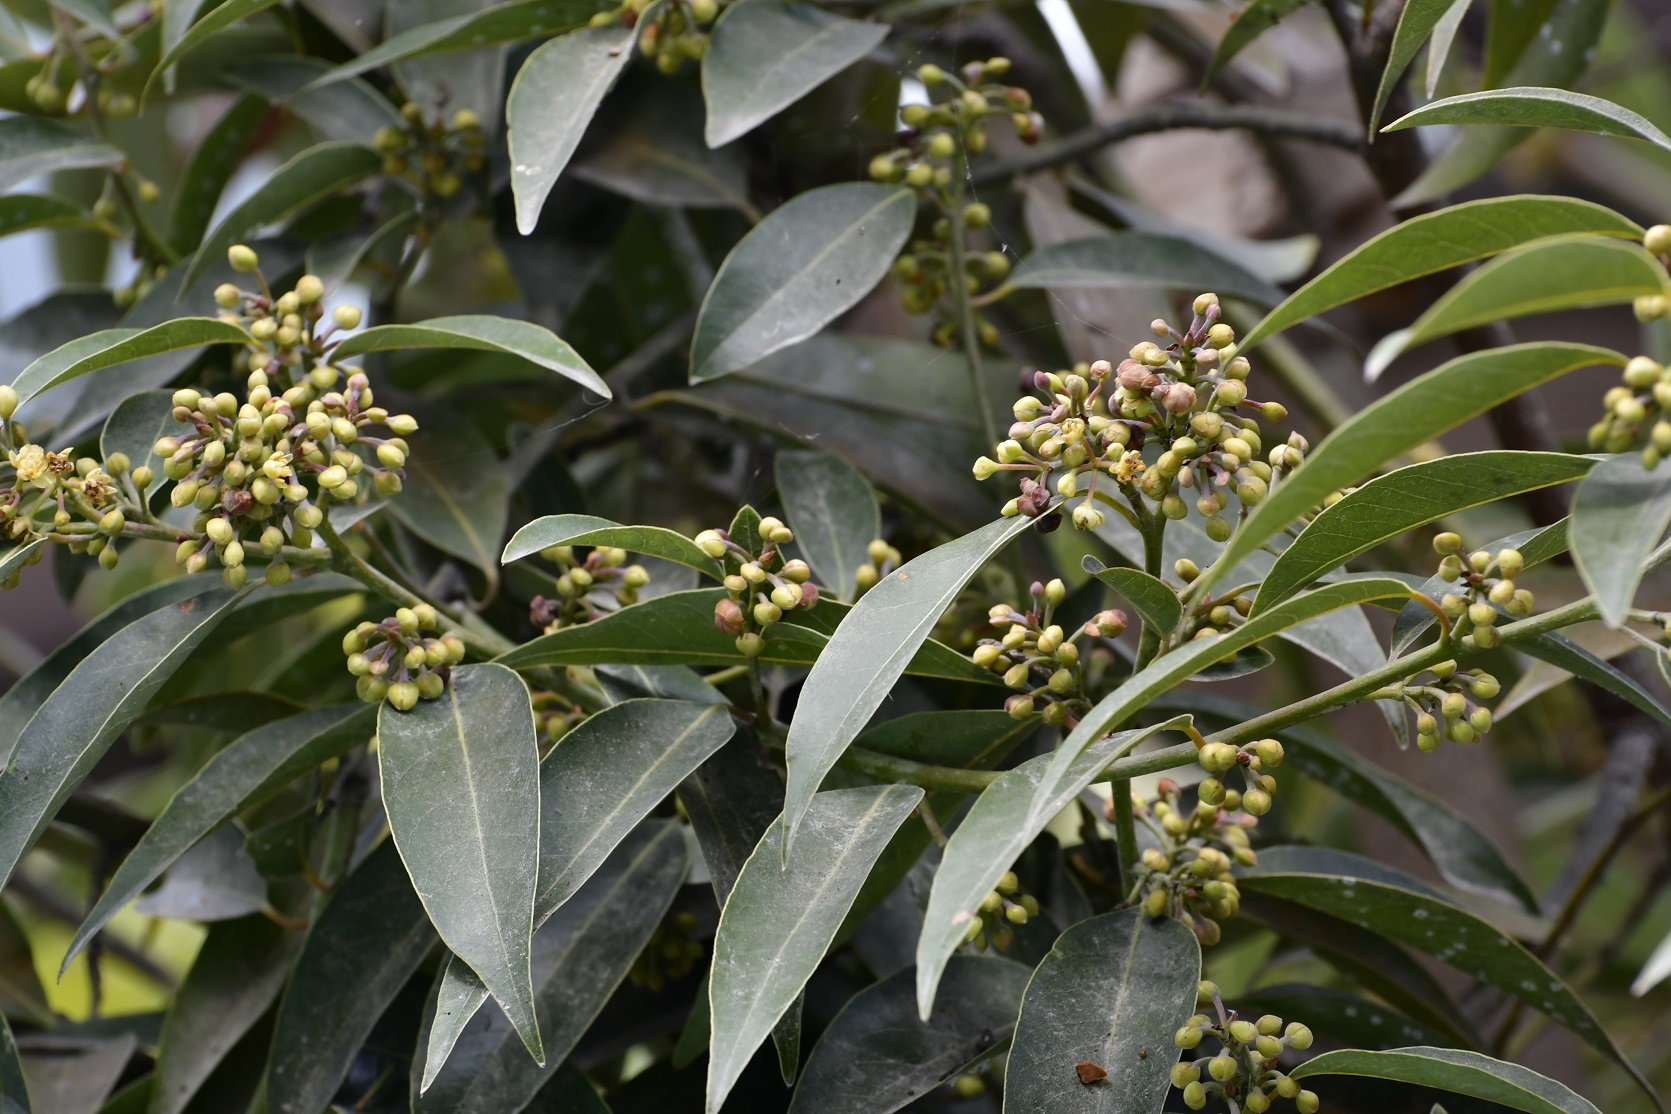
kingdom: Plantae
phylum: Tracheophyta
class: Magnoliopsida
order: Laurales
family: Lauraceae
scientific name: Lauraceae
